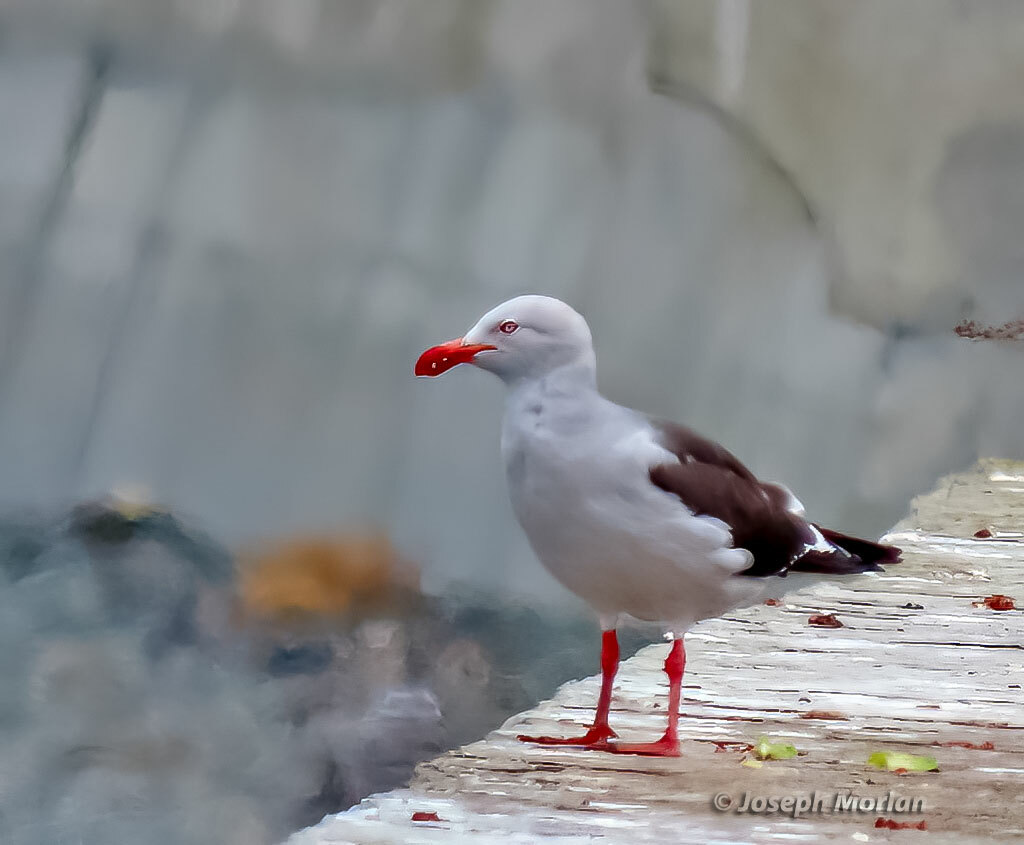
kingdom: Animalia
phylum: Chordata
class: Aves
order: Charadriiformes
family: Laridae
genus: Leucophaeus
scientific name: Leucophaeus scoresbii
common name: Dolphin gull
